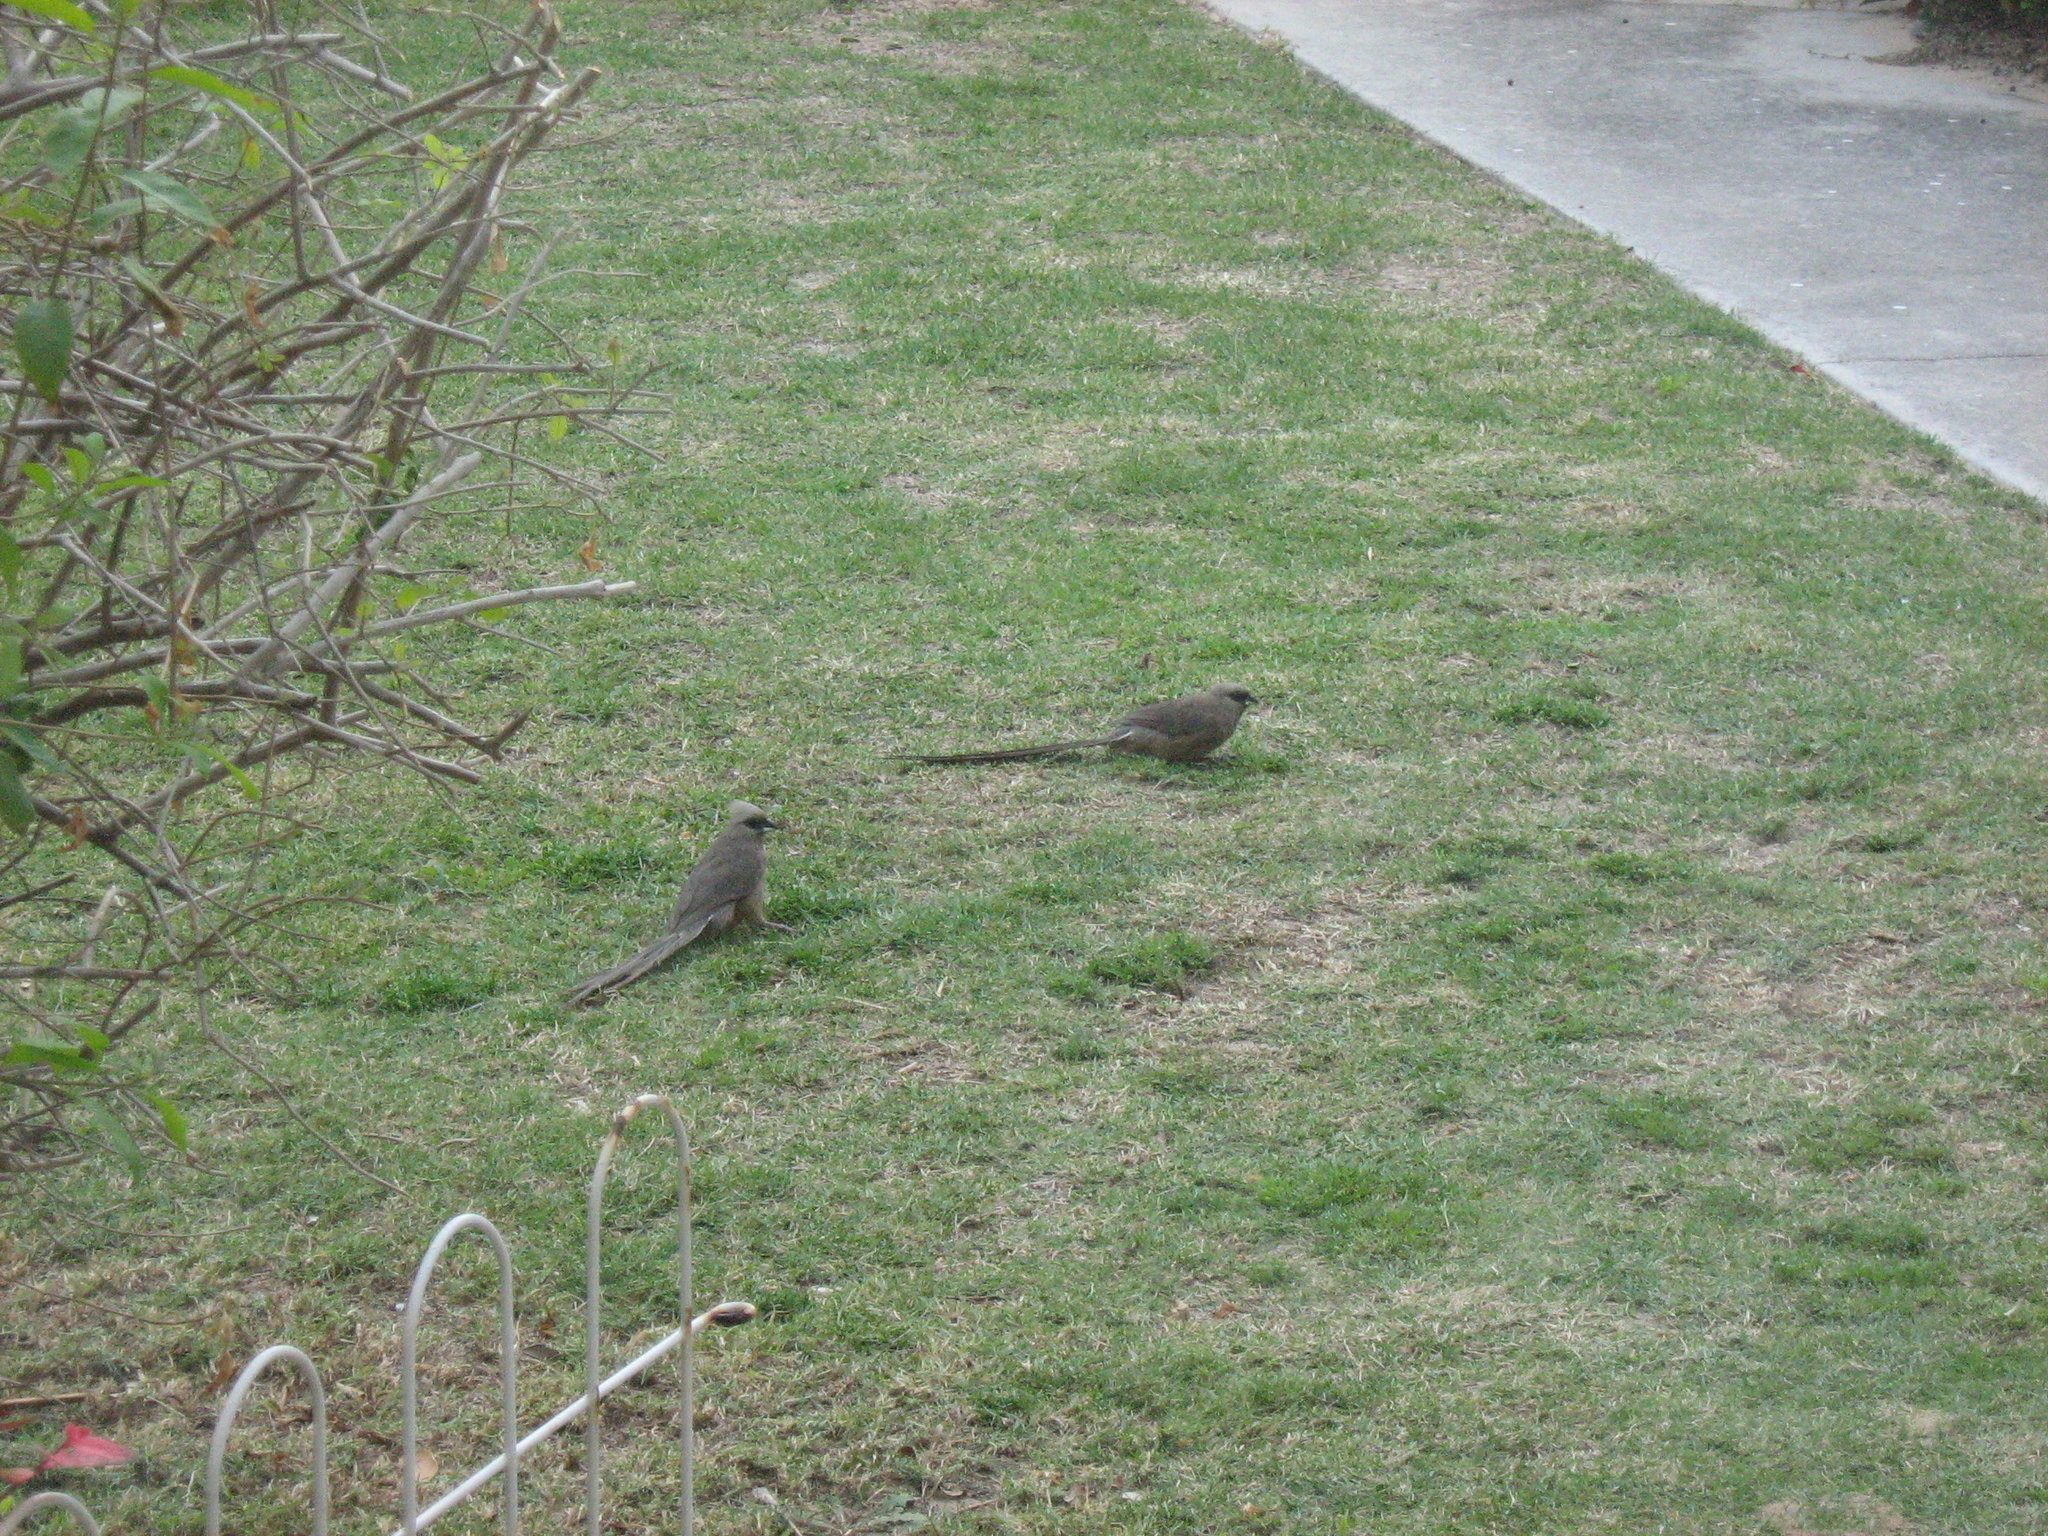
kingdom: Animalia
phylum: Chordata
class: Aves
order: Coliiformes
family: Coliidae
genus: Colius
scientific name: Colius striatus
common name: Speckled mousebird
